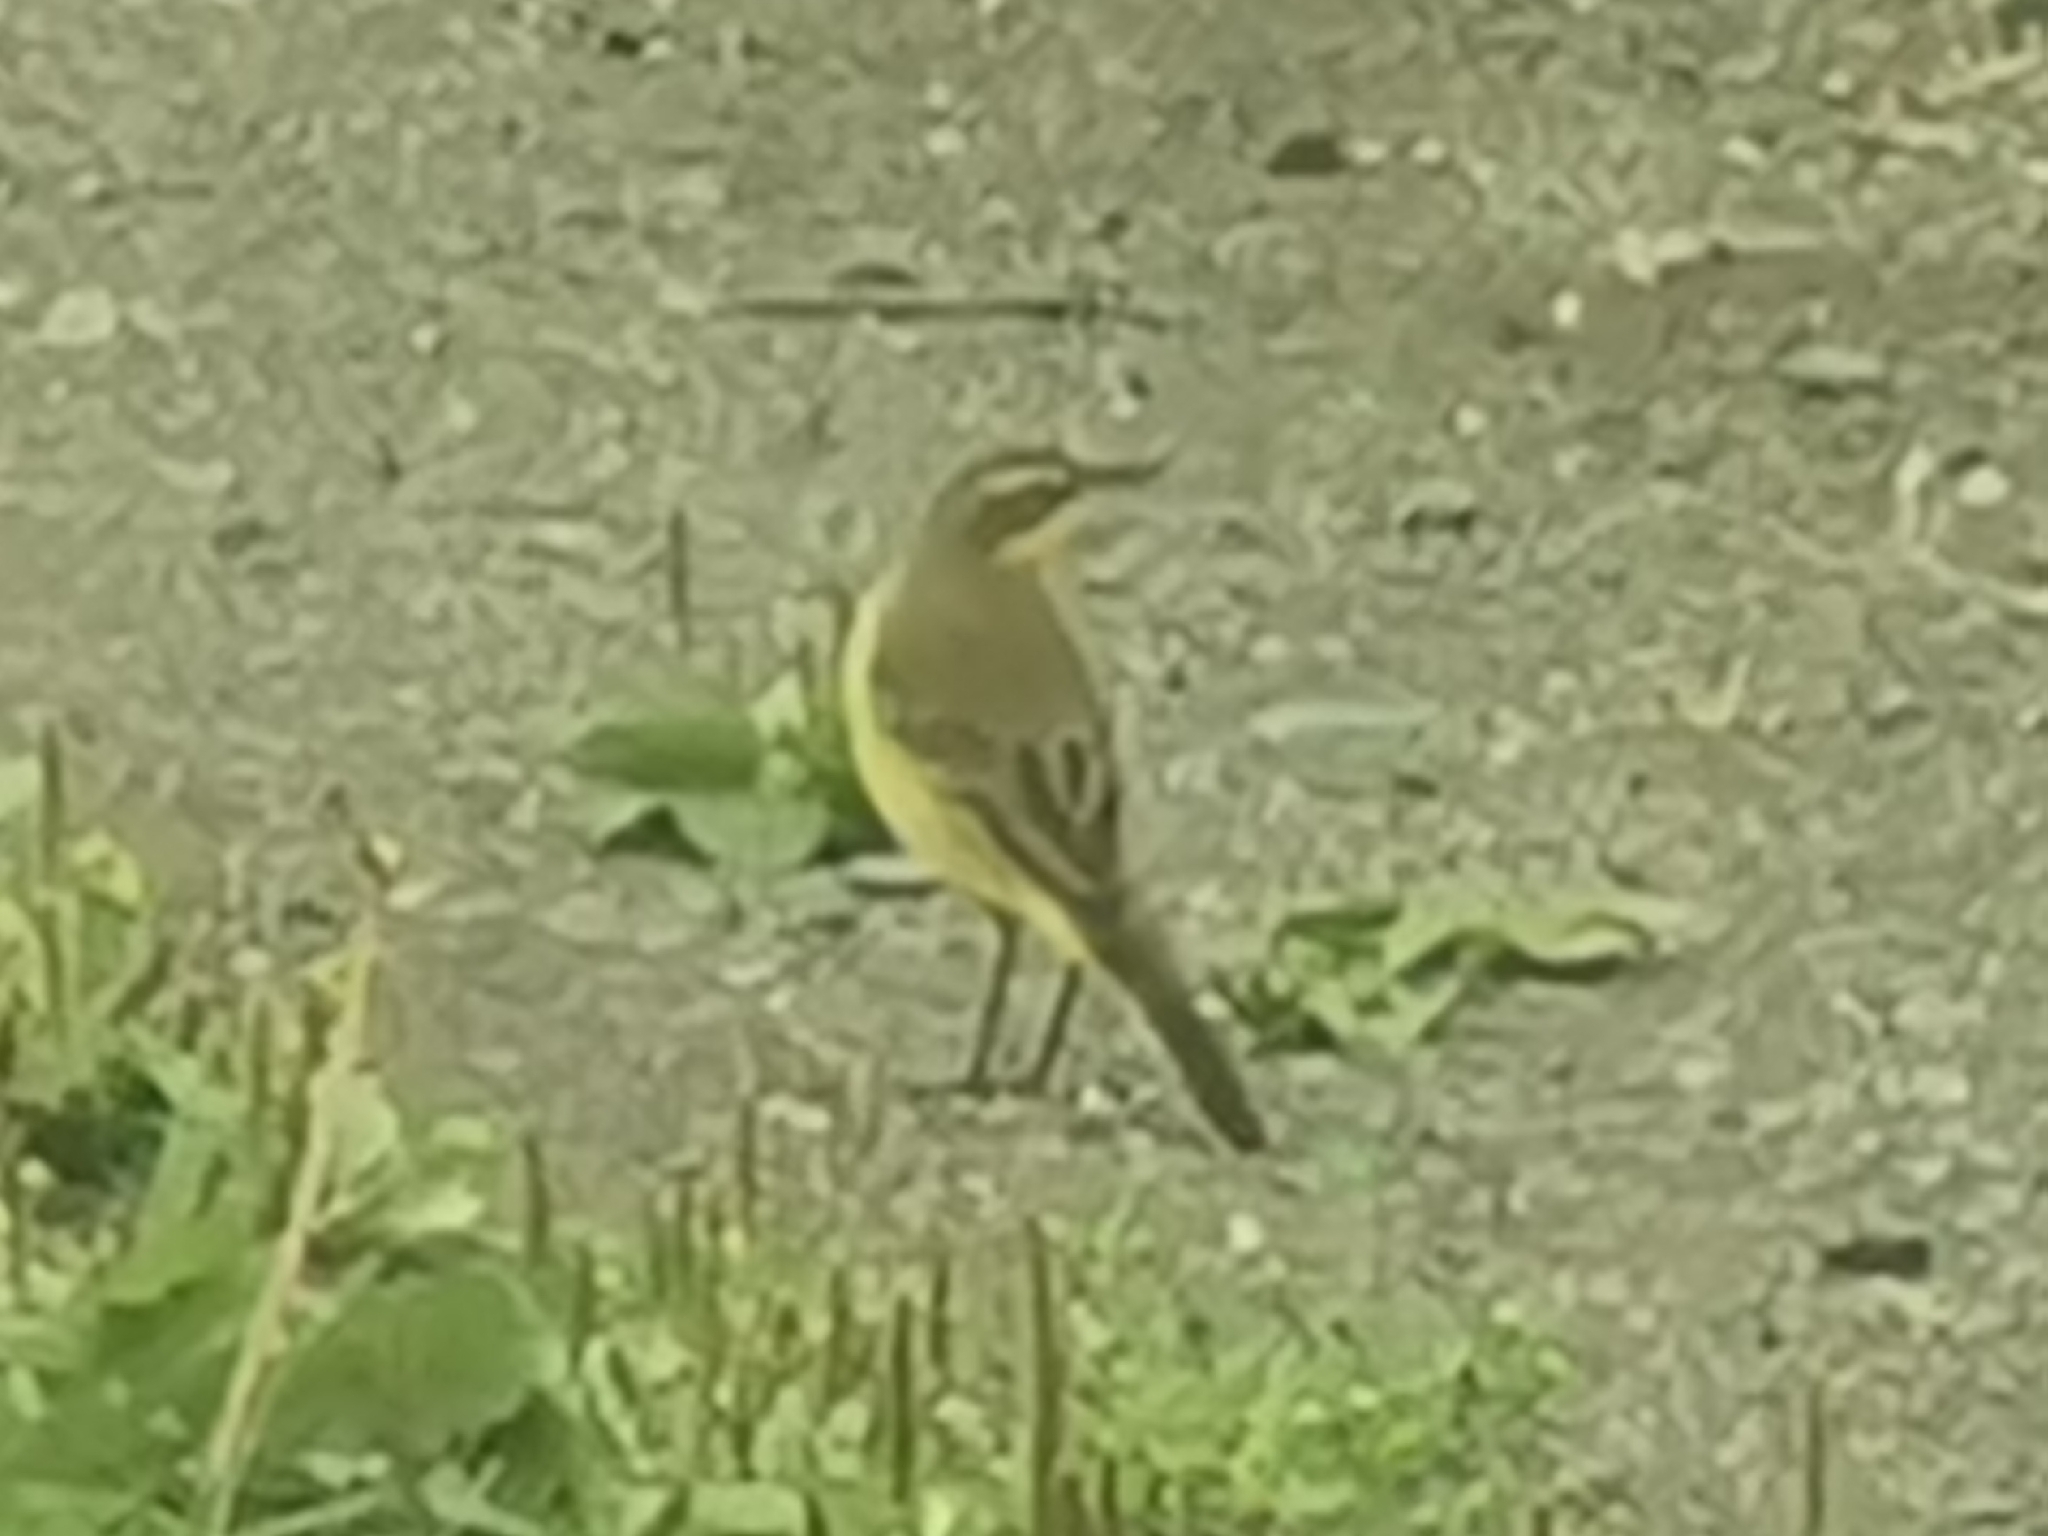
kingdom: Animalia
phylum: Chordata
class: Aves
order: Passeriformes
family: Motacillidae
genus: Motacilla
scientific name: Motacilla tschutschensis
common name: Eastern yellow wagtail
